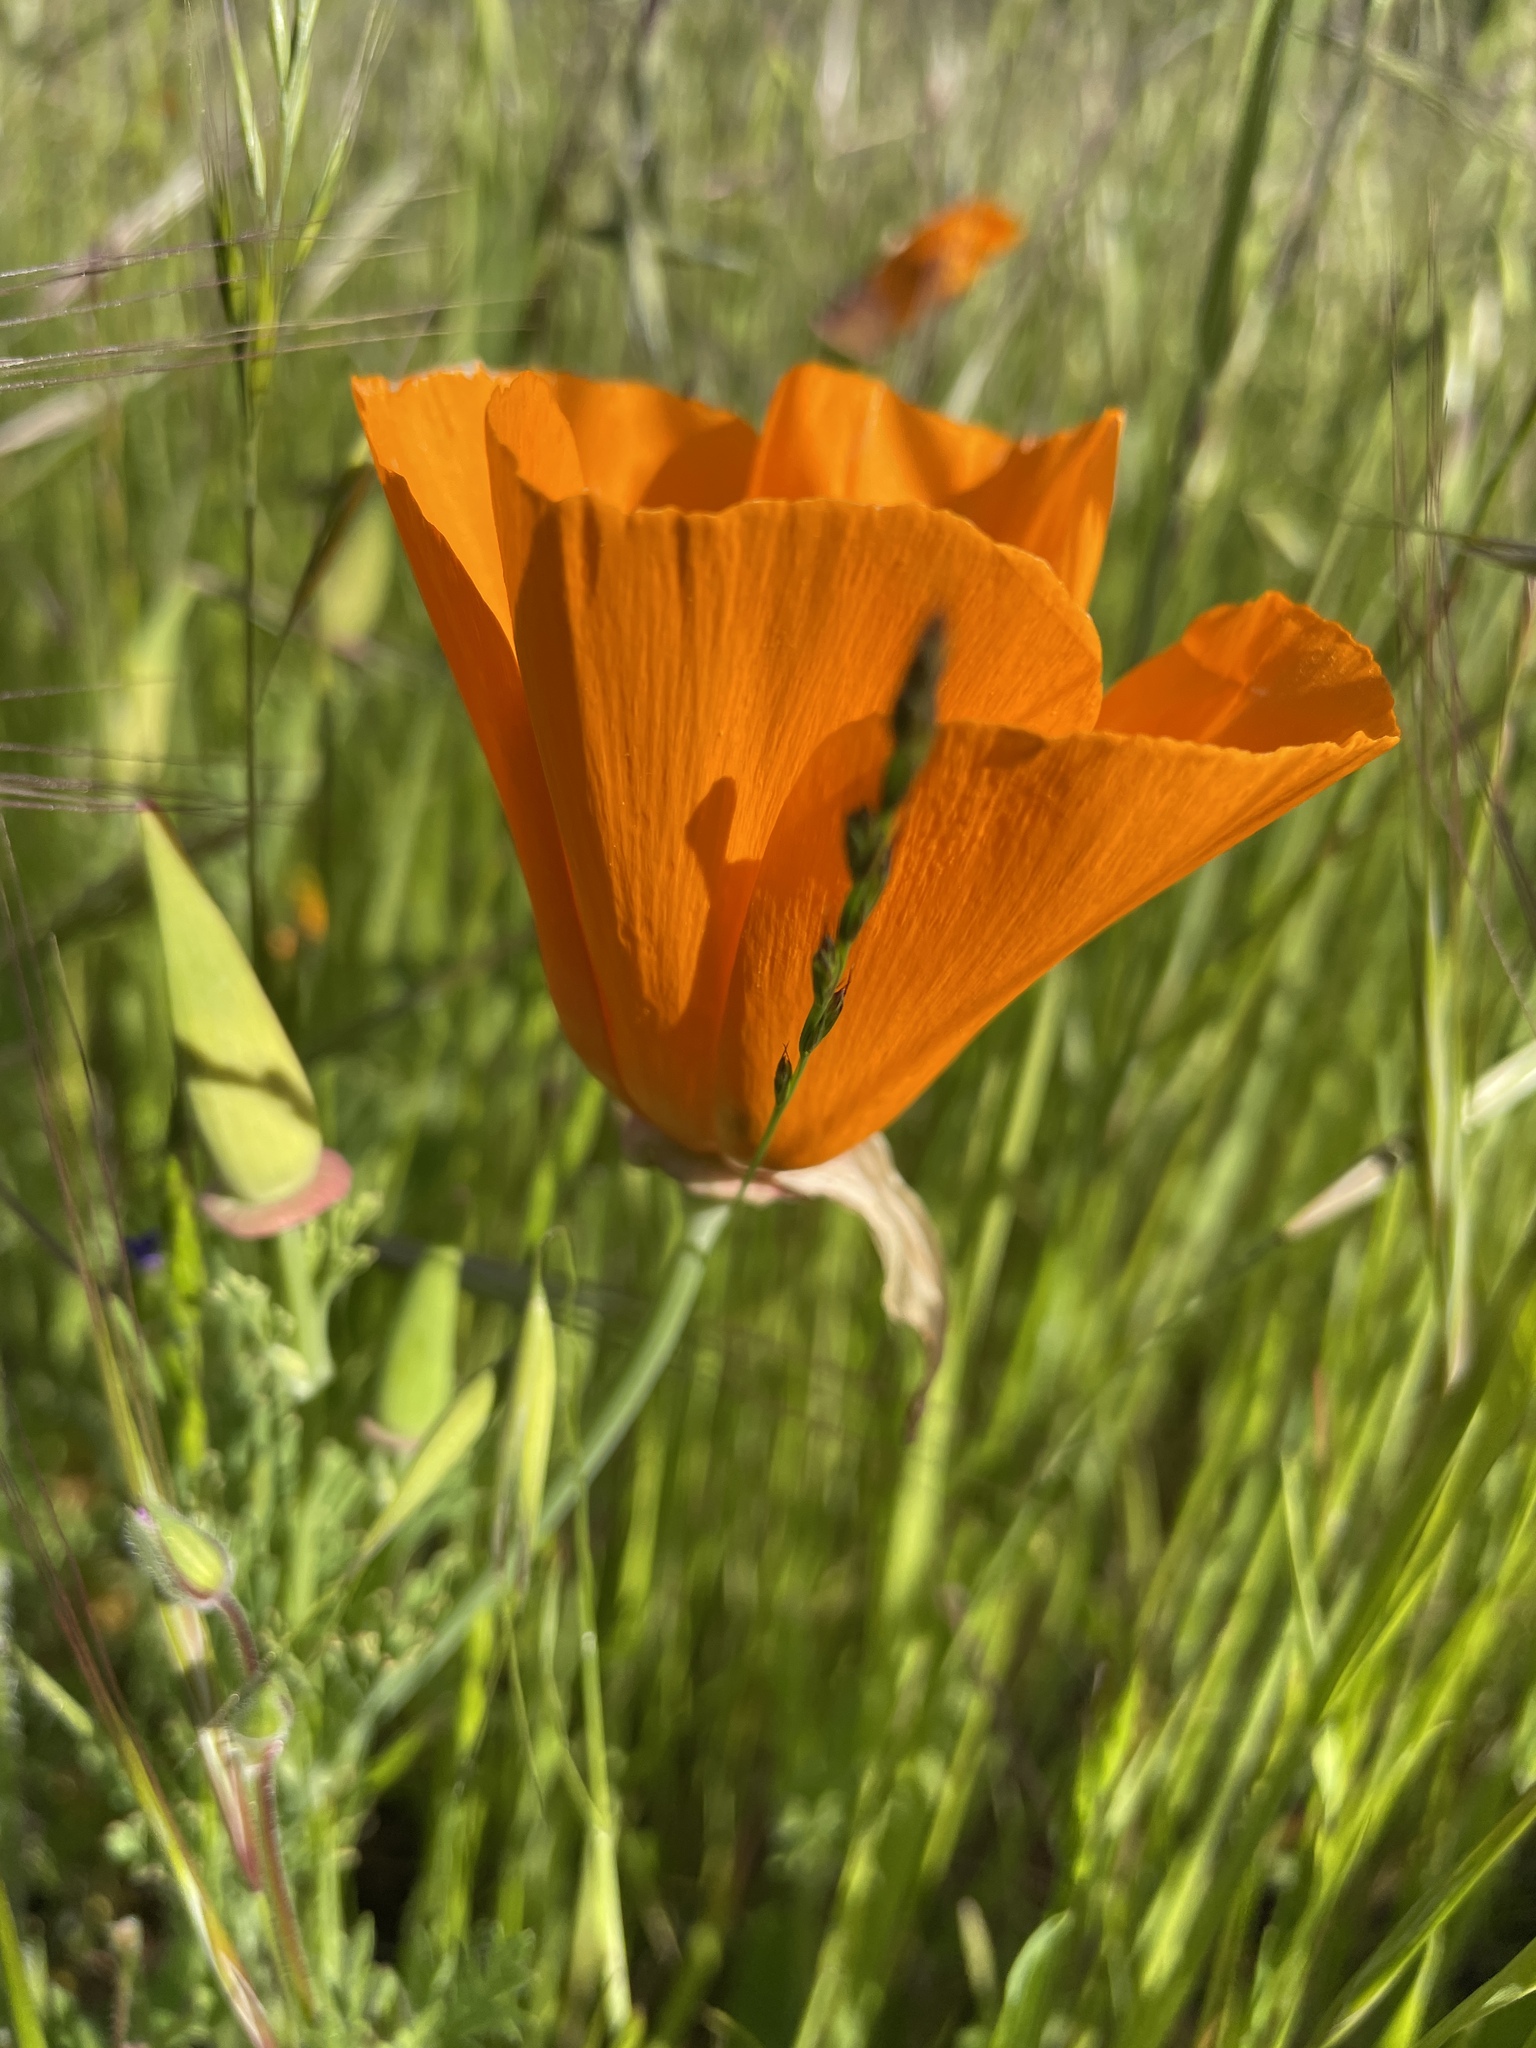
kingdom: Plantae
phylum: Tracheophyta
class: Magnoliopsida
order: Ranunculales
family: Papaveraceae
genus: Eschscholzia
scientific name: Eschscholzia californica
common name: California poppy
